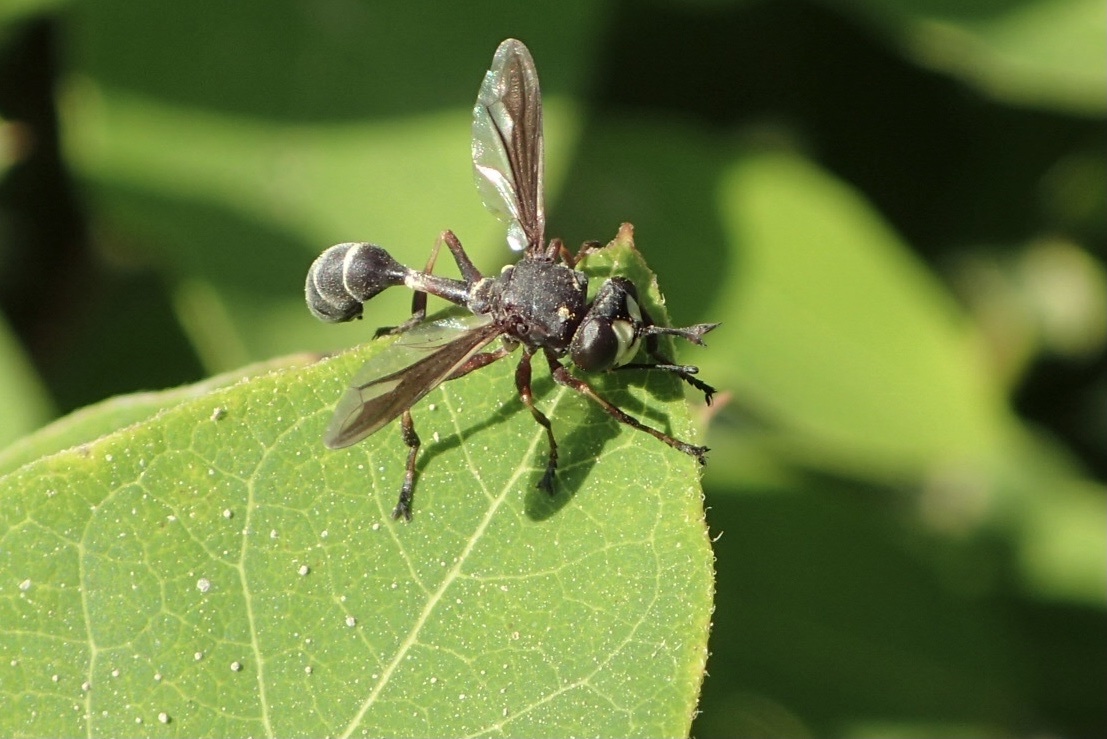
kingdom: Animalia
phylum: Arthropoda
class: Insecta
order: Diptera
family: Conopidae
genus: Physocephala
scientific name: Physocephala furcillata
